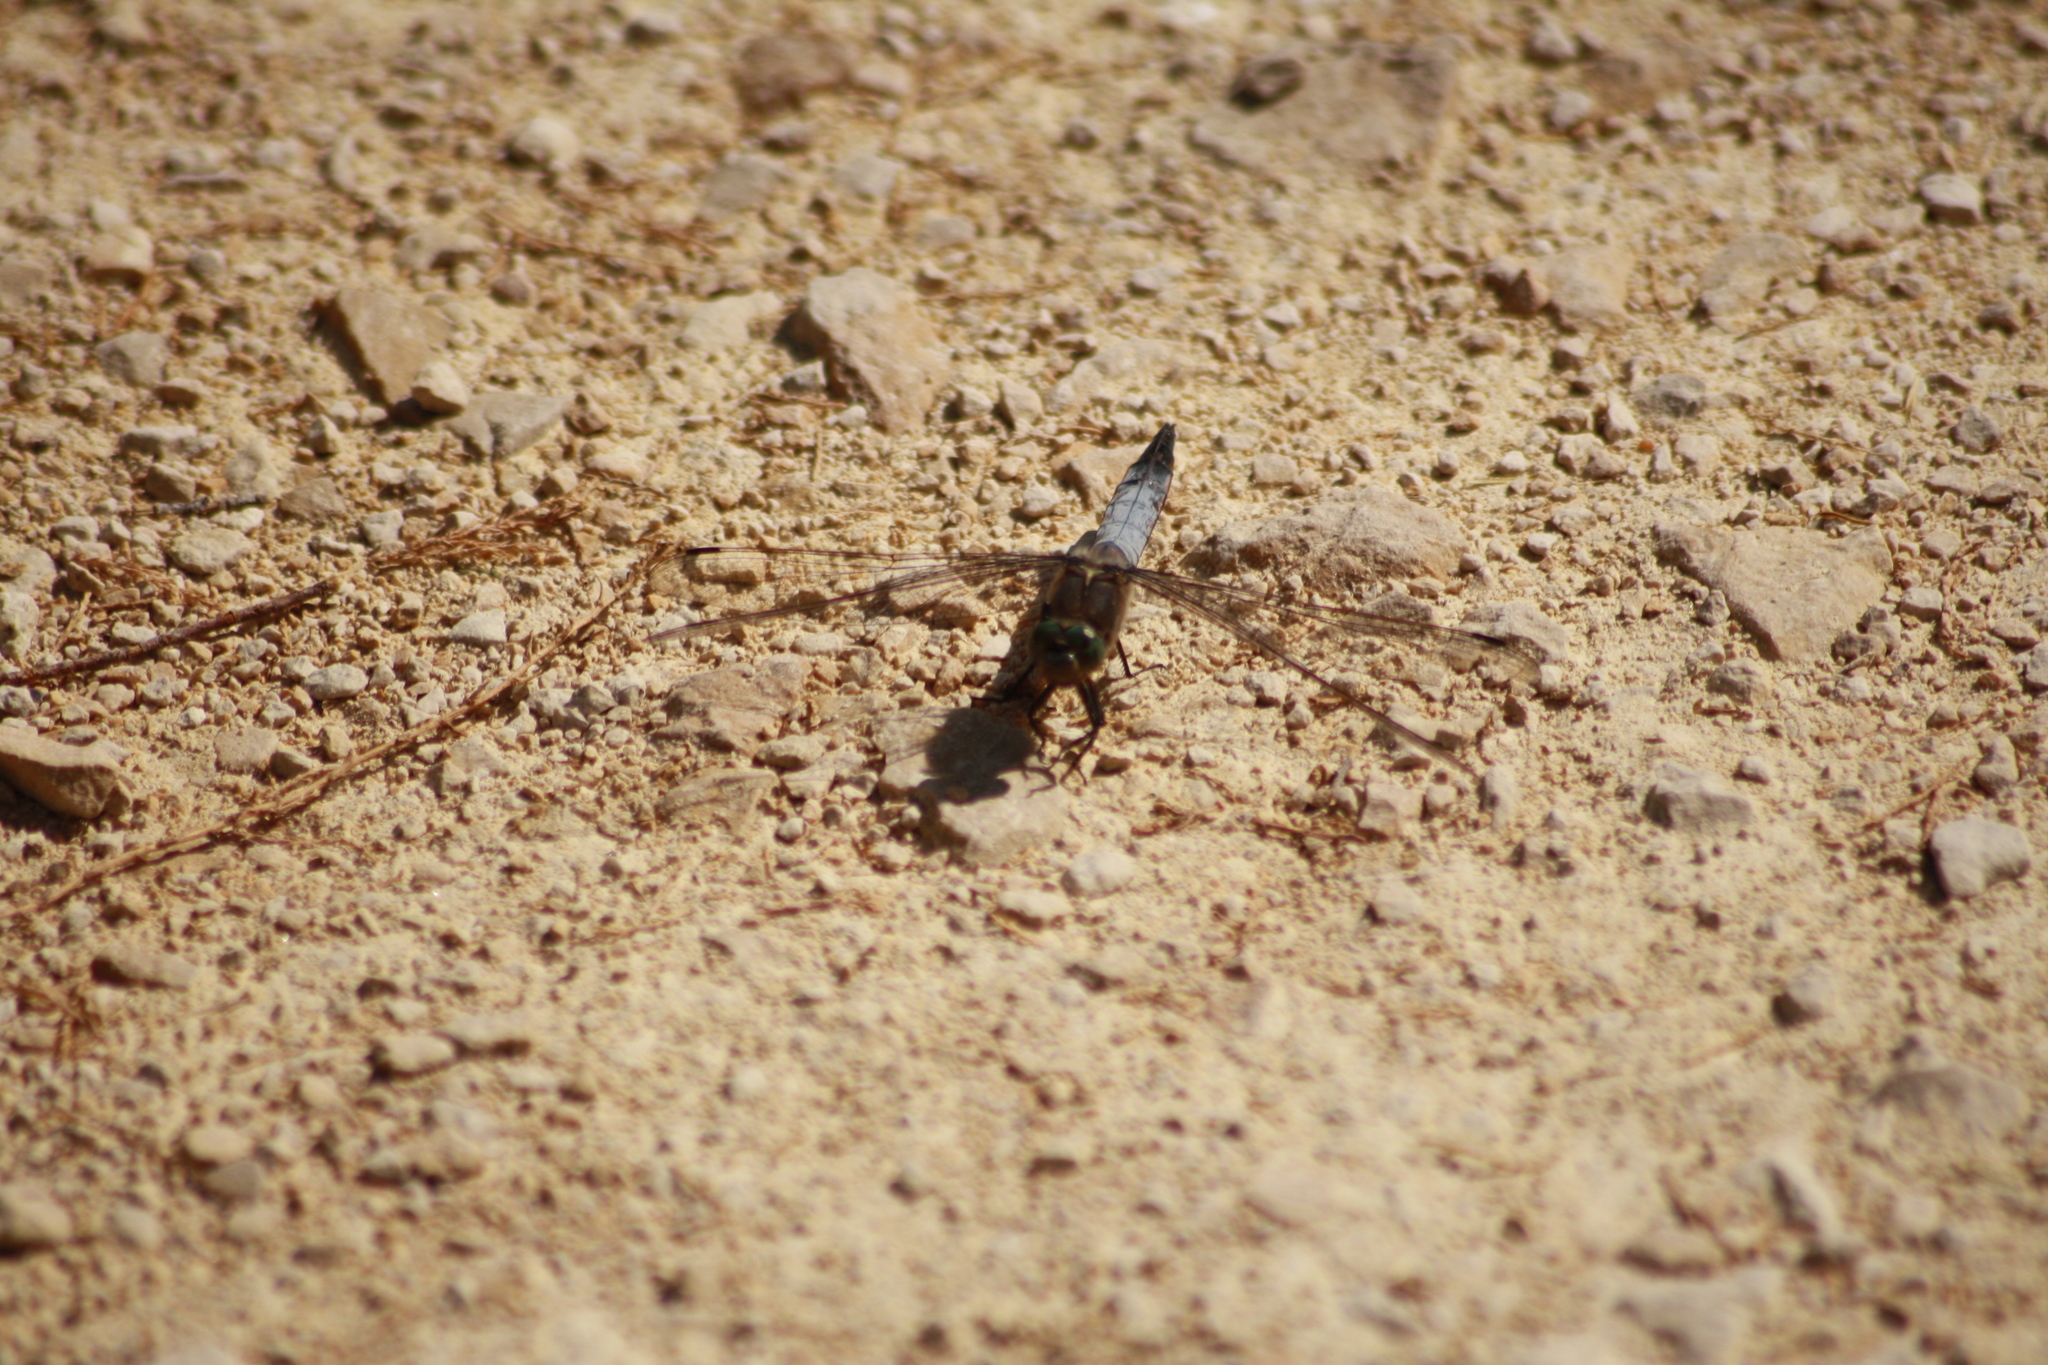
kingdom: Animalia
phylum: Arthropoda
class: Insecta
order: Odonata
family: Libellulidae
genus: Orthetrum
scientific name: Orthetrum cancellatum
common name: Black-tailed skimmer
